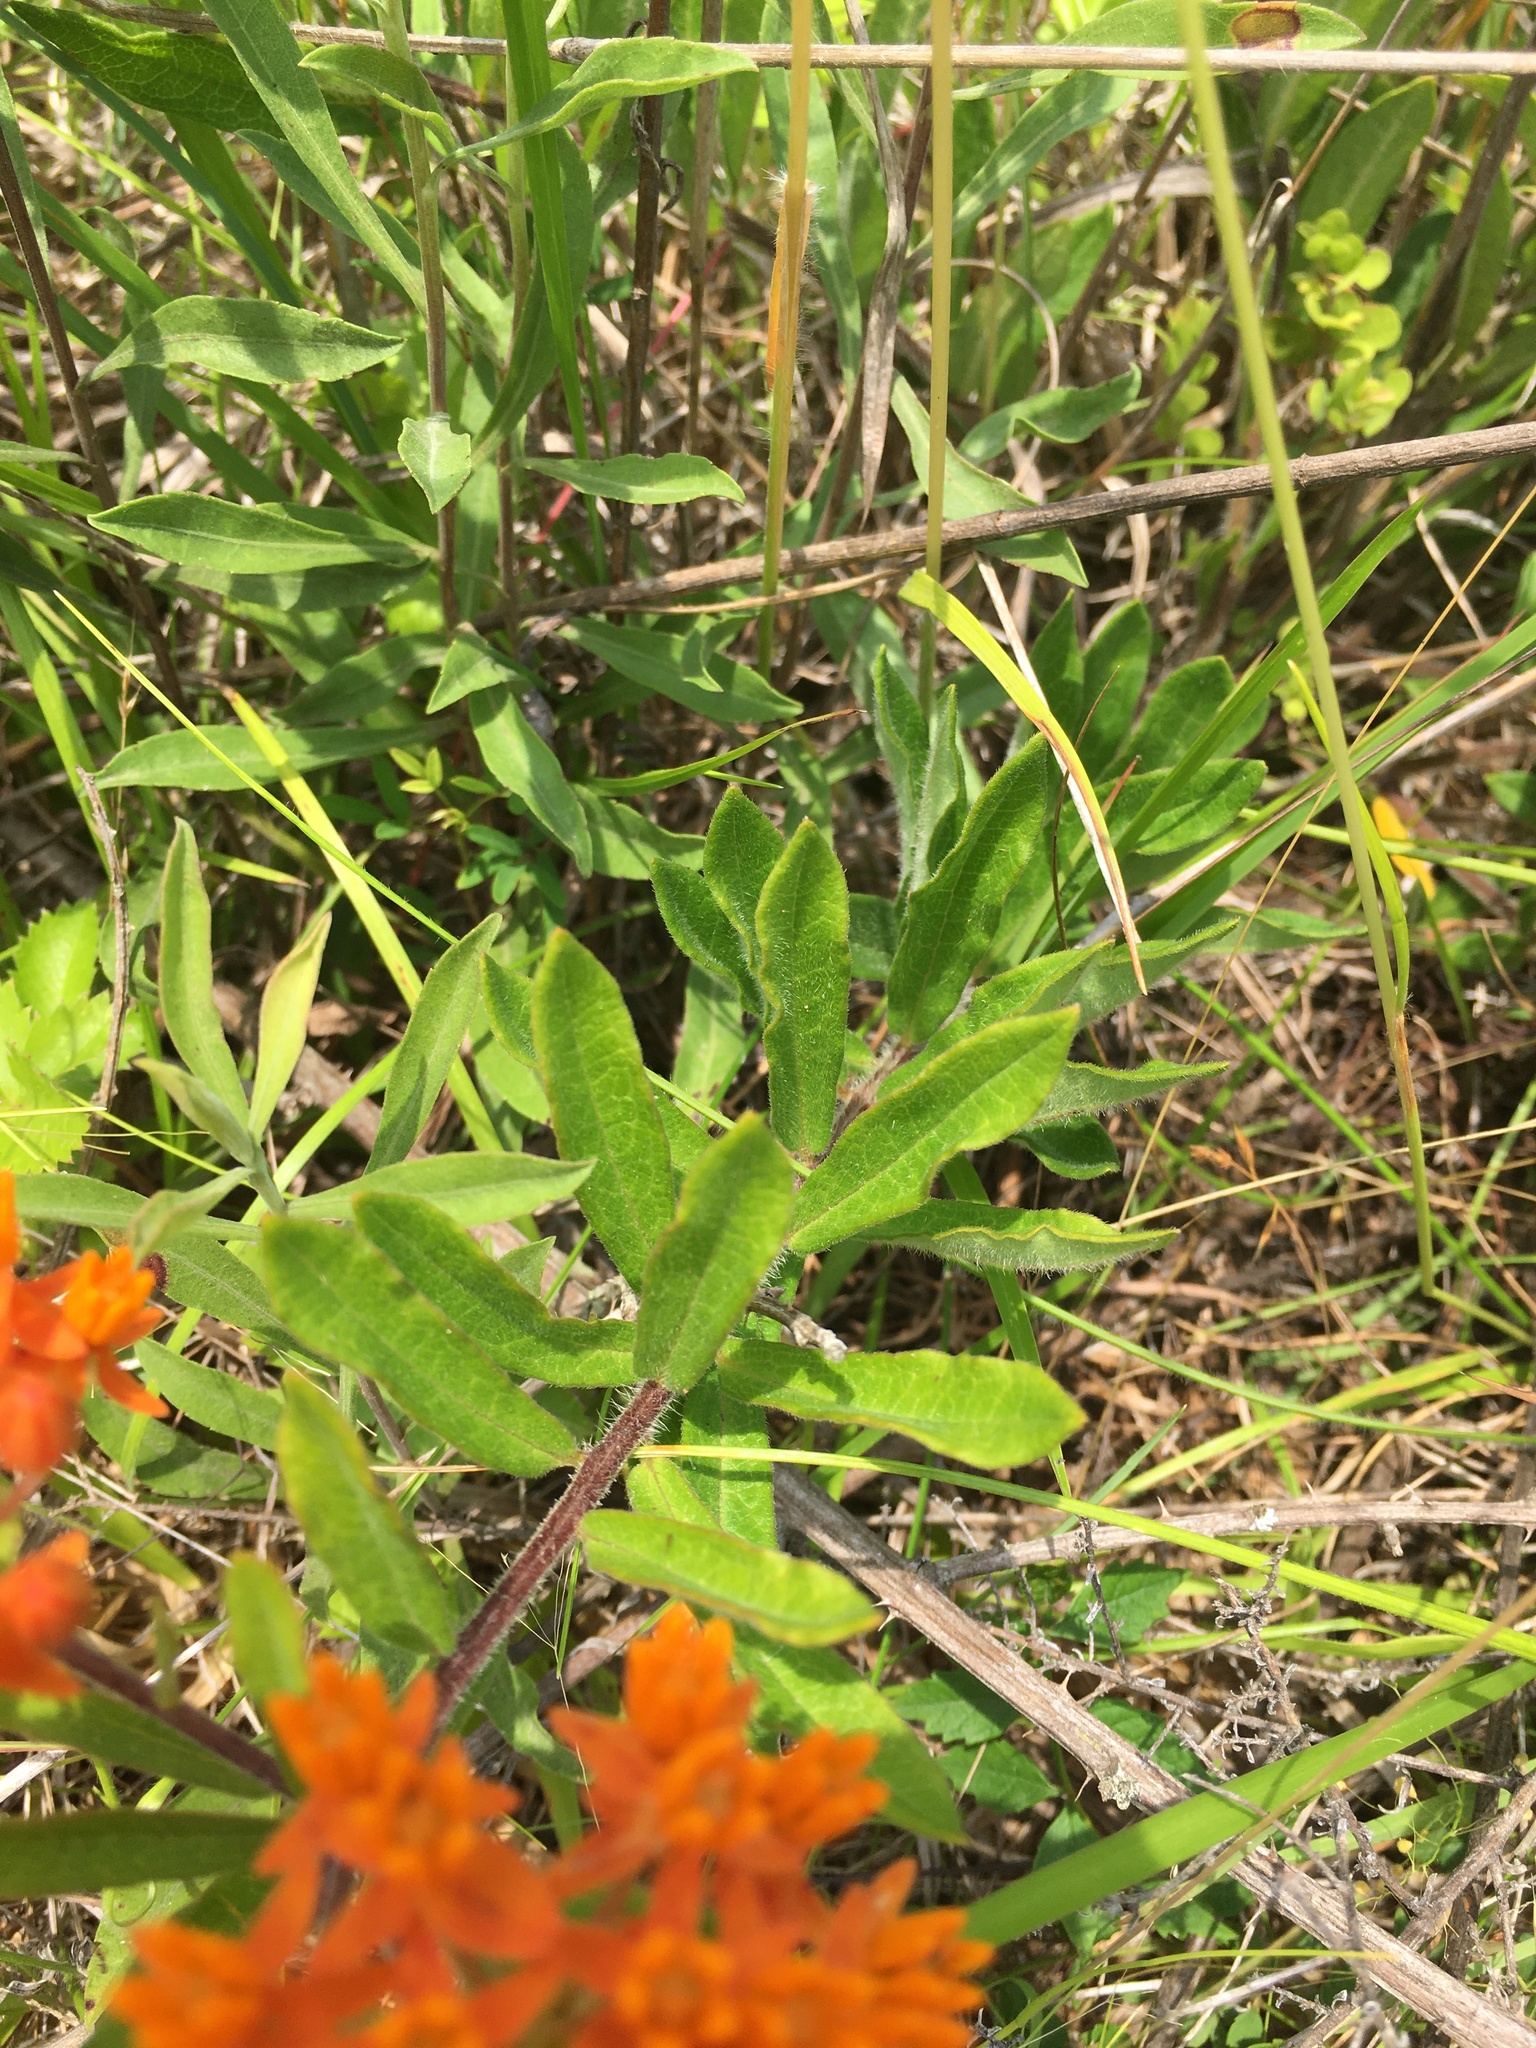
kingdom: Plantae
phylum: Tracheophyta
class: Magnoliopsida
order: Gentianales
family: Apocynaceae
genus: Asclepias
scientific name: Asclepias tuberosa
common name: Butterfly milkweed
